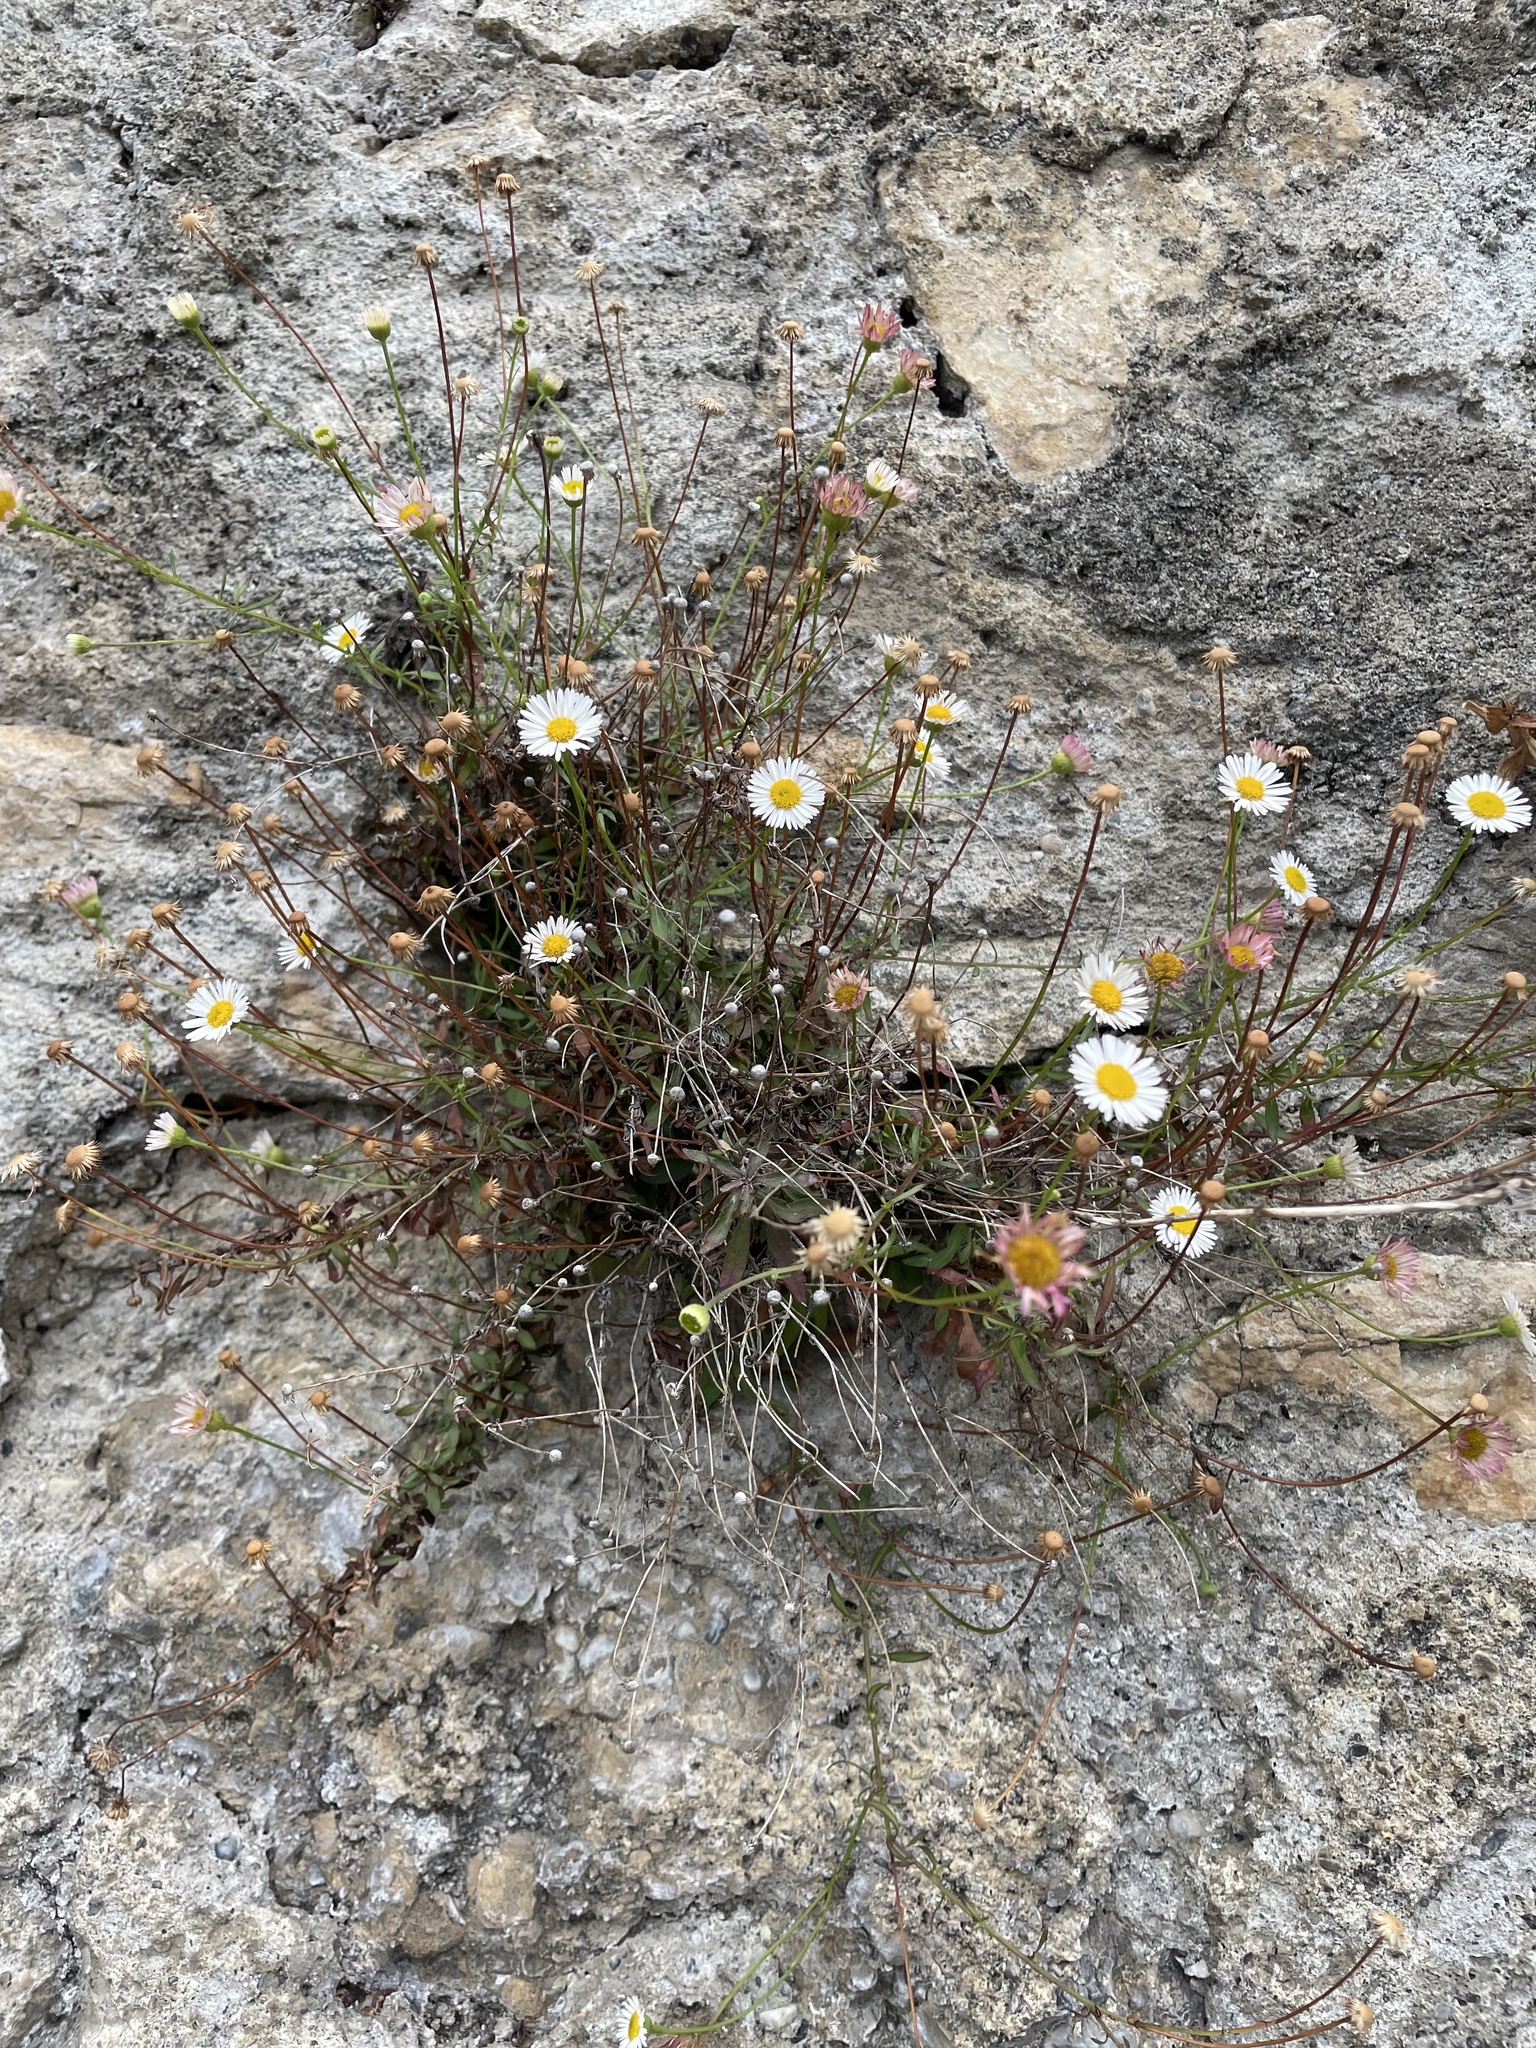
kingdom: Plantae
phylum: Tracheophyta
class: Magnoliopsida
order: Asterales
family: Asteraceae
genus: Erigeron
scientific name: Erigeron karvinskianus
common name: Mexican fleabane
